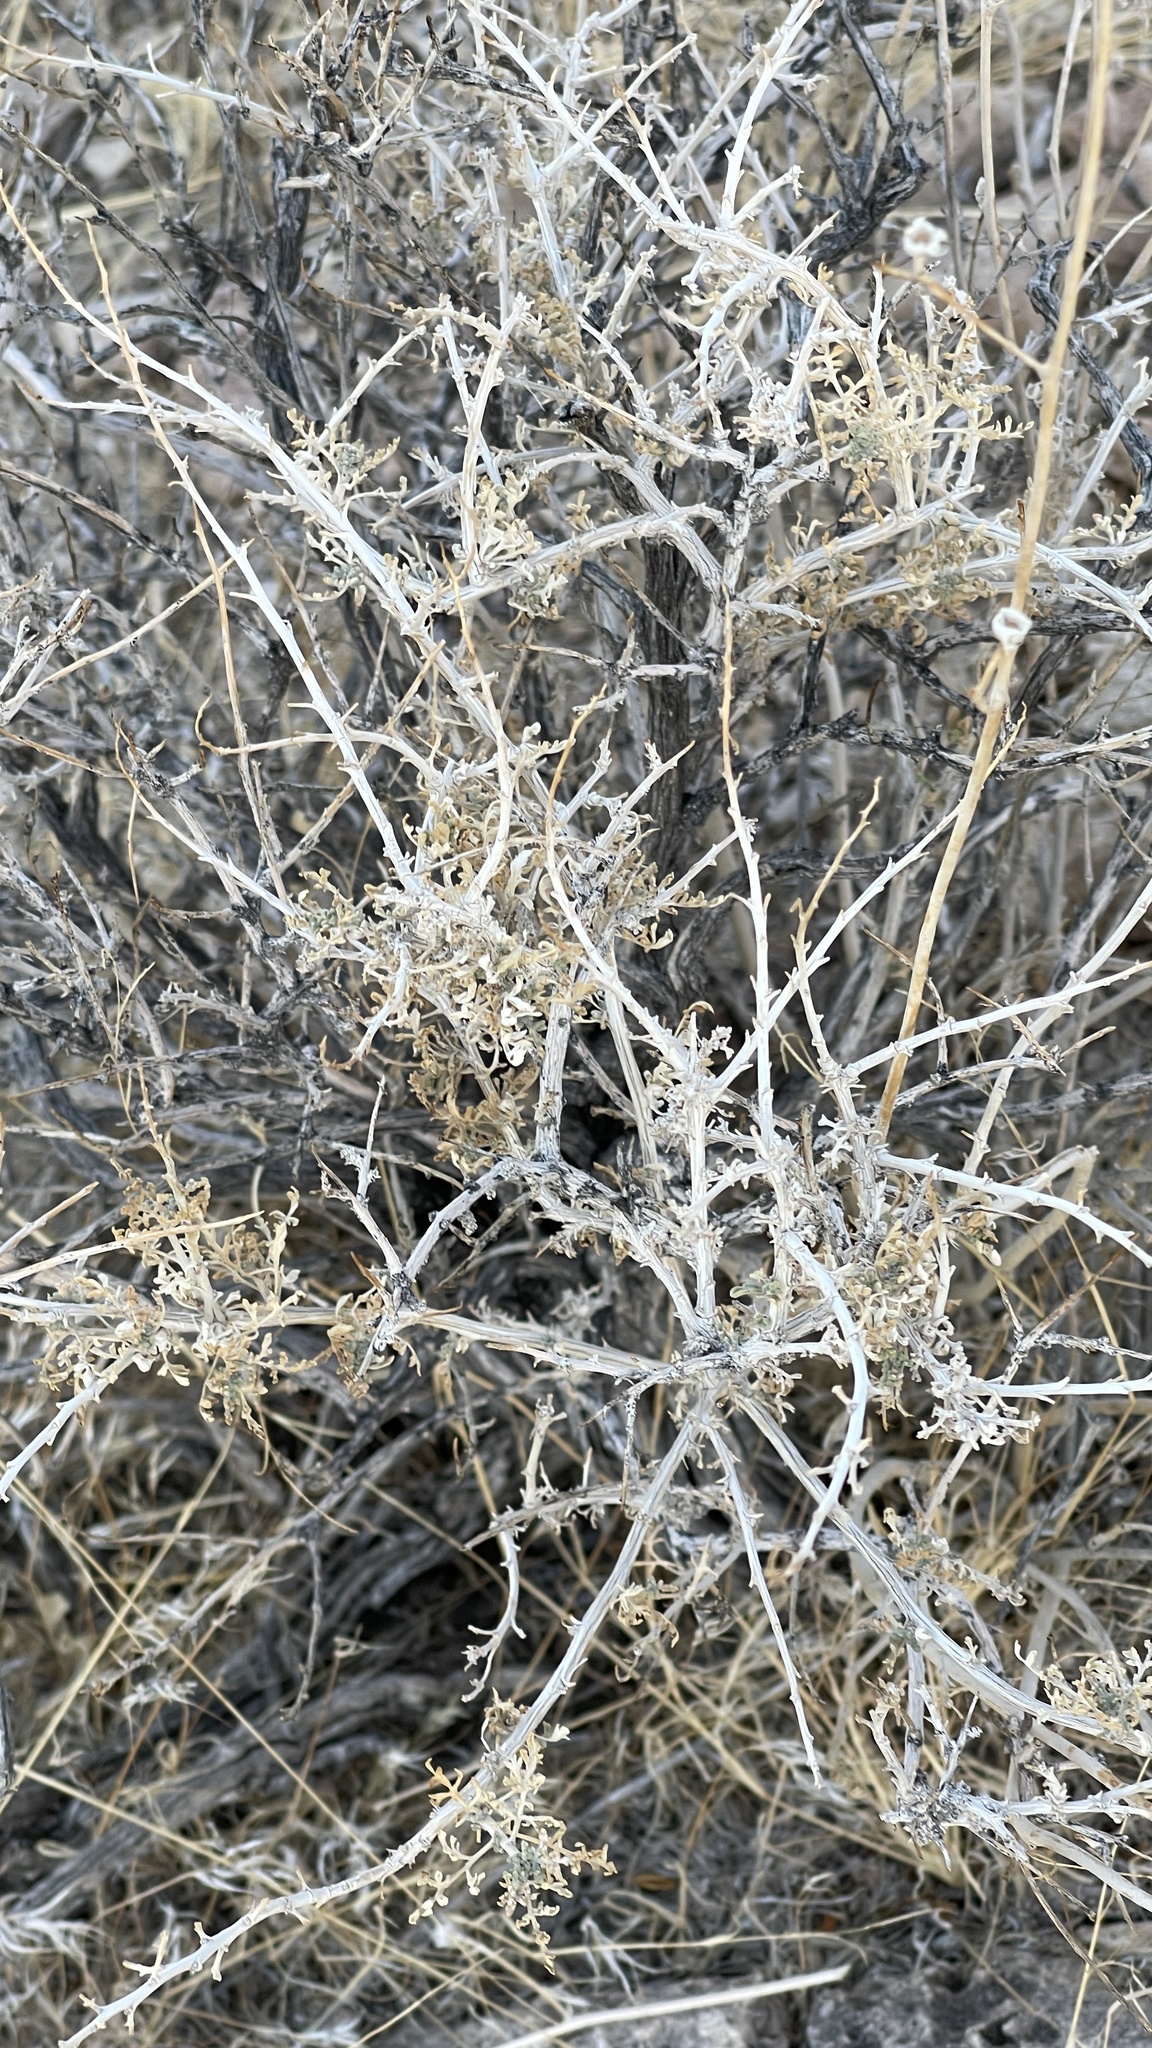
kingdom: Plantae
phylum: Tracheophyta
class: Magnoliopsida
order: Asterales
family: Asteraceae
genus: Ambrosia
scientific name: Ambrosia dumosa
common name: Bur-sage
